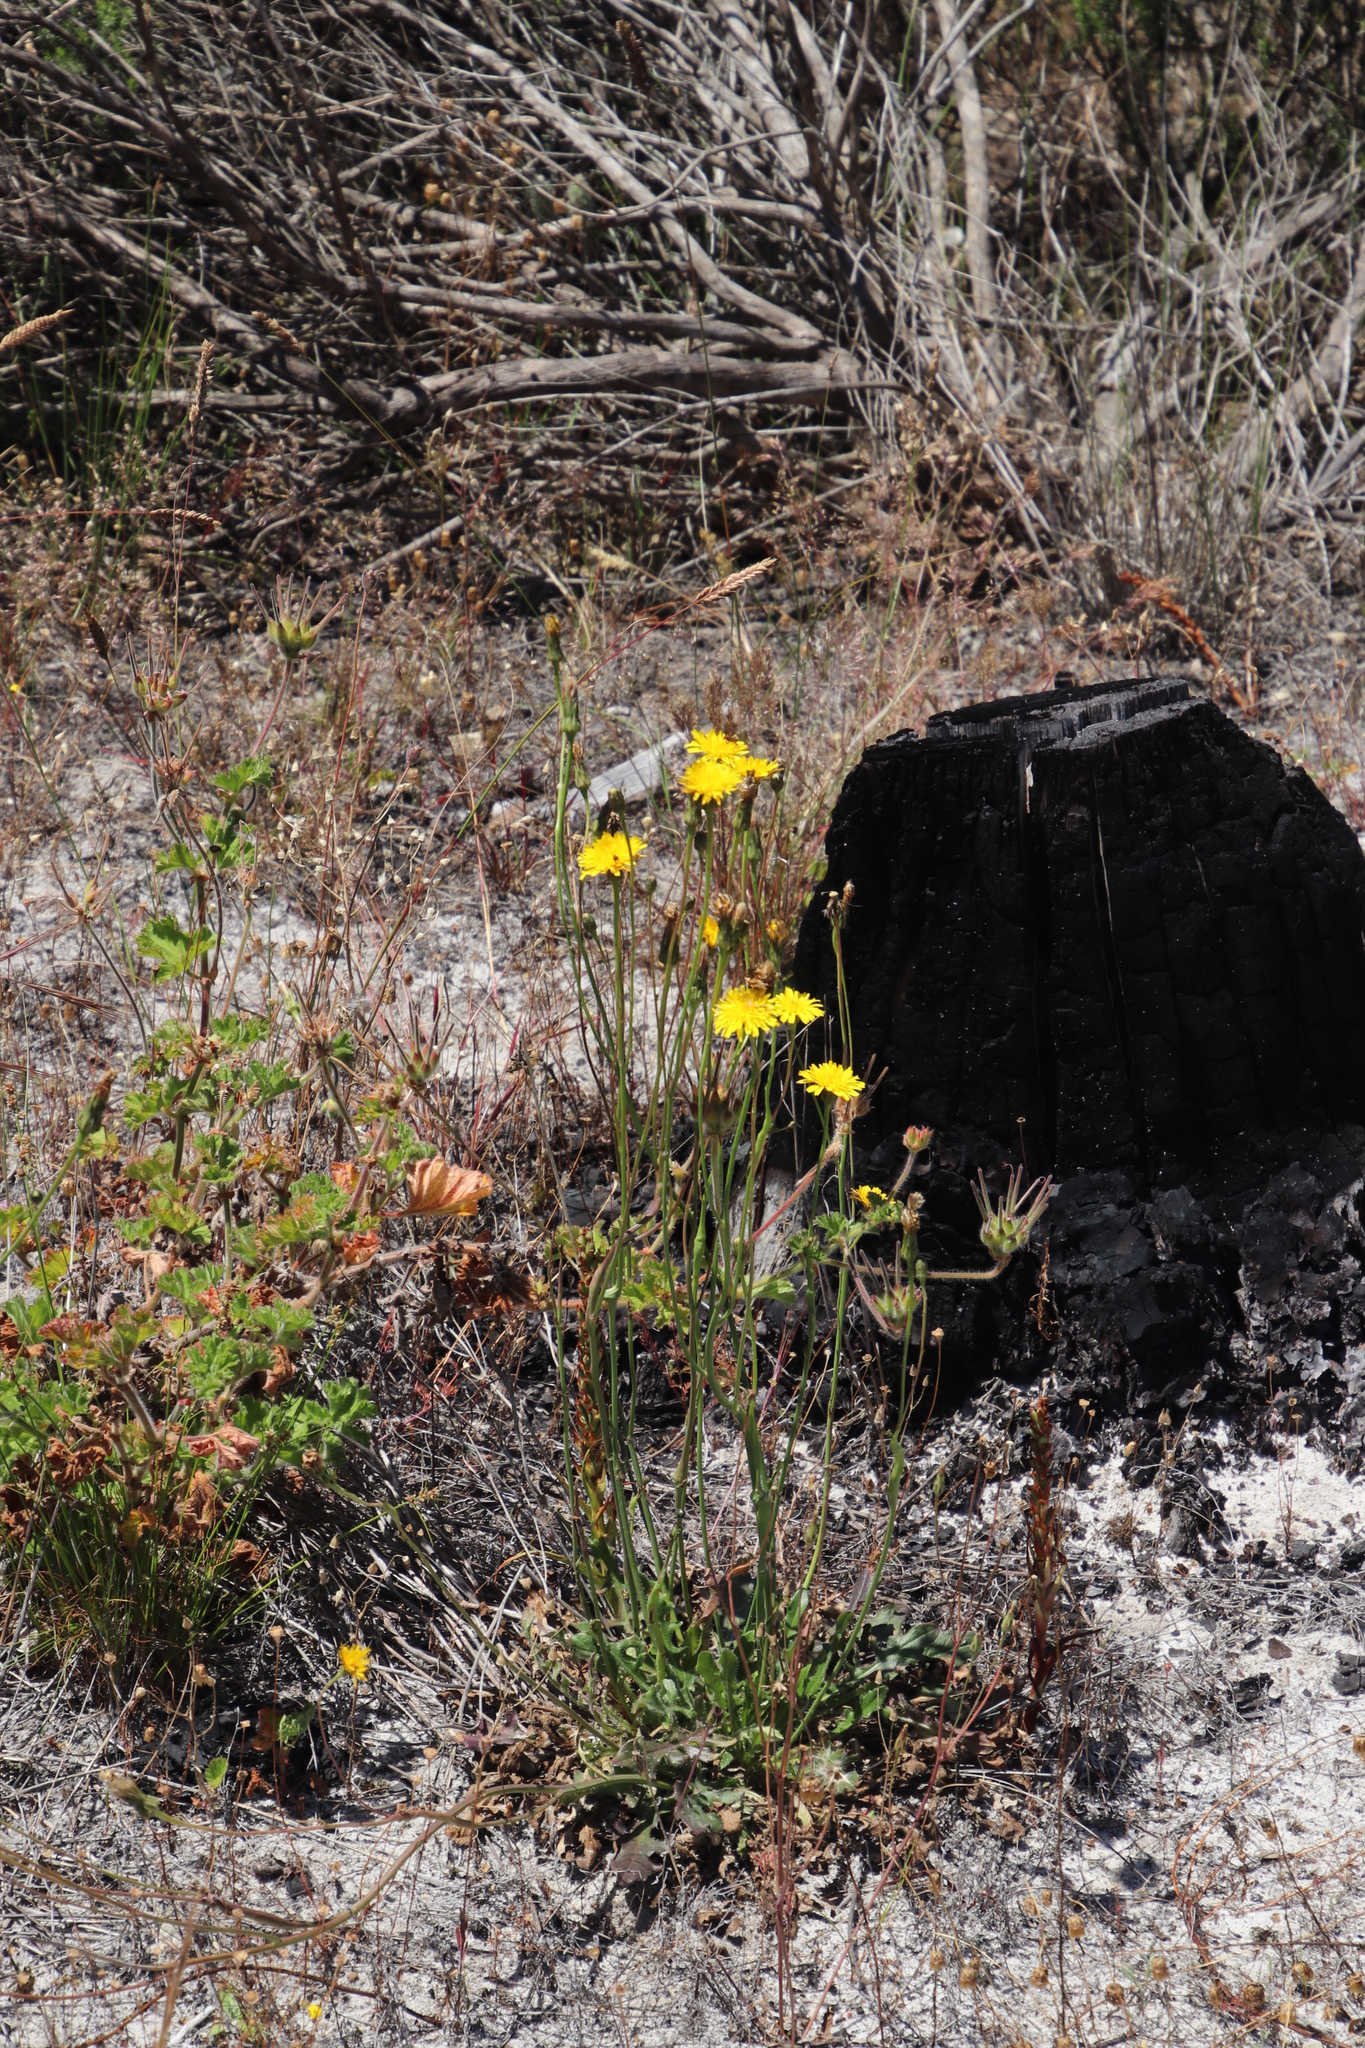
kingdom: Plantae
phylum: Tracheophyta
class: Magnoliopsida
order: Asterales
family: Asteraceae
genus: Hypochaeris
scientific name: Hypochaeris radicata
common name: Flatweed
